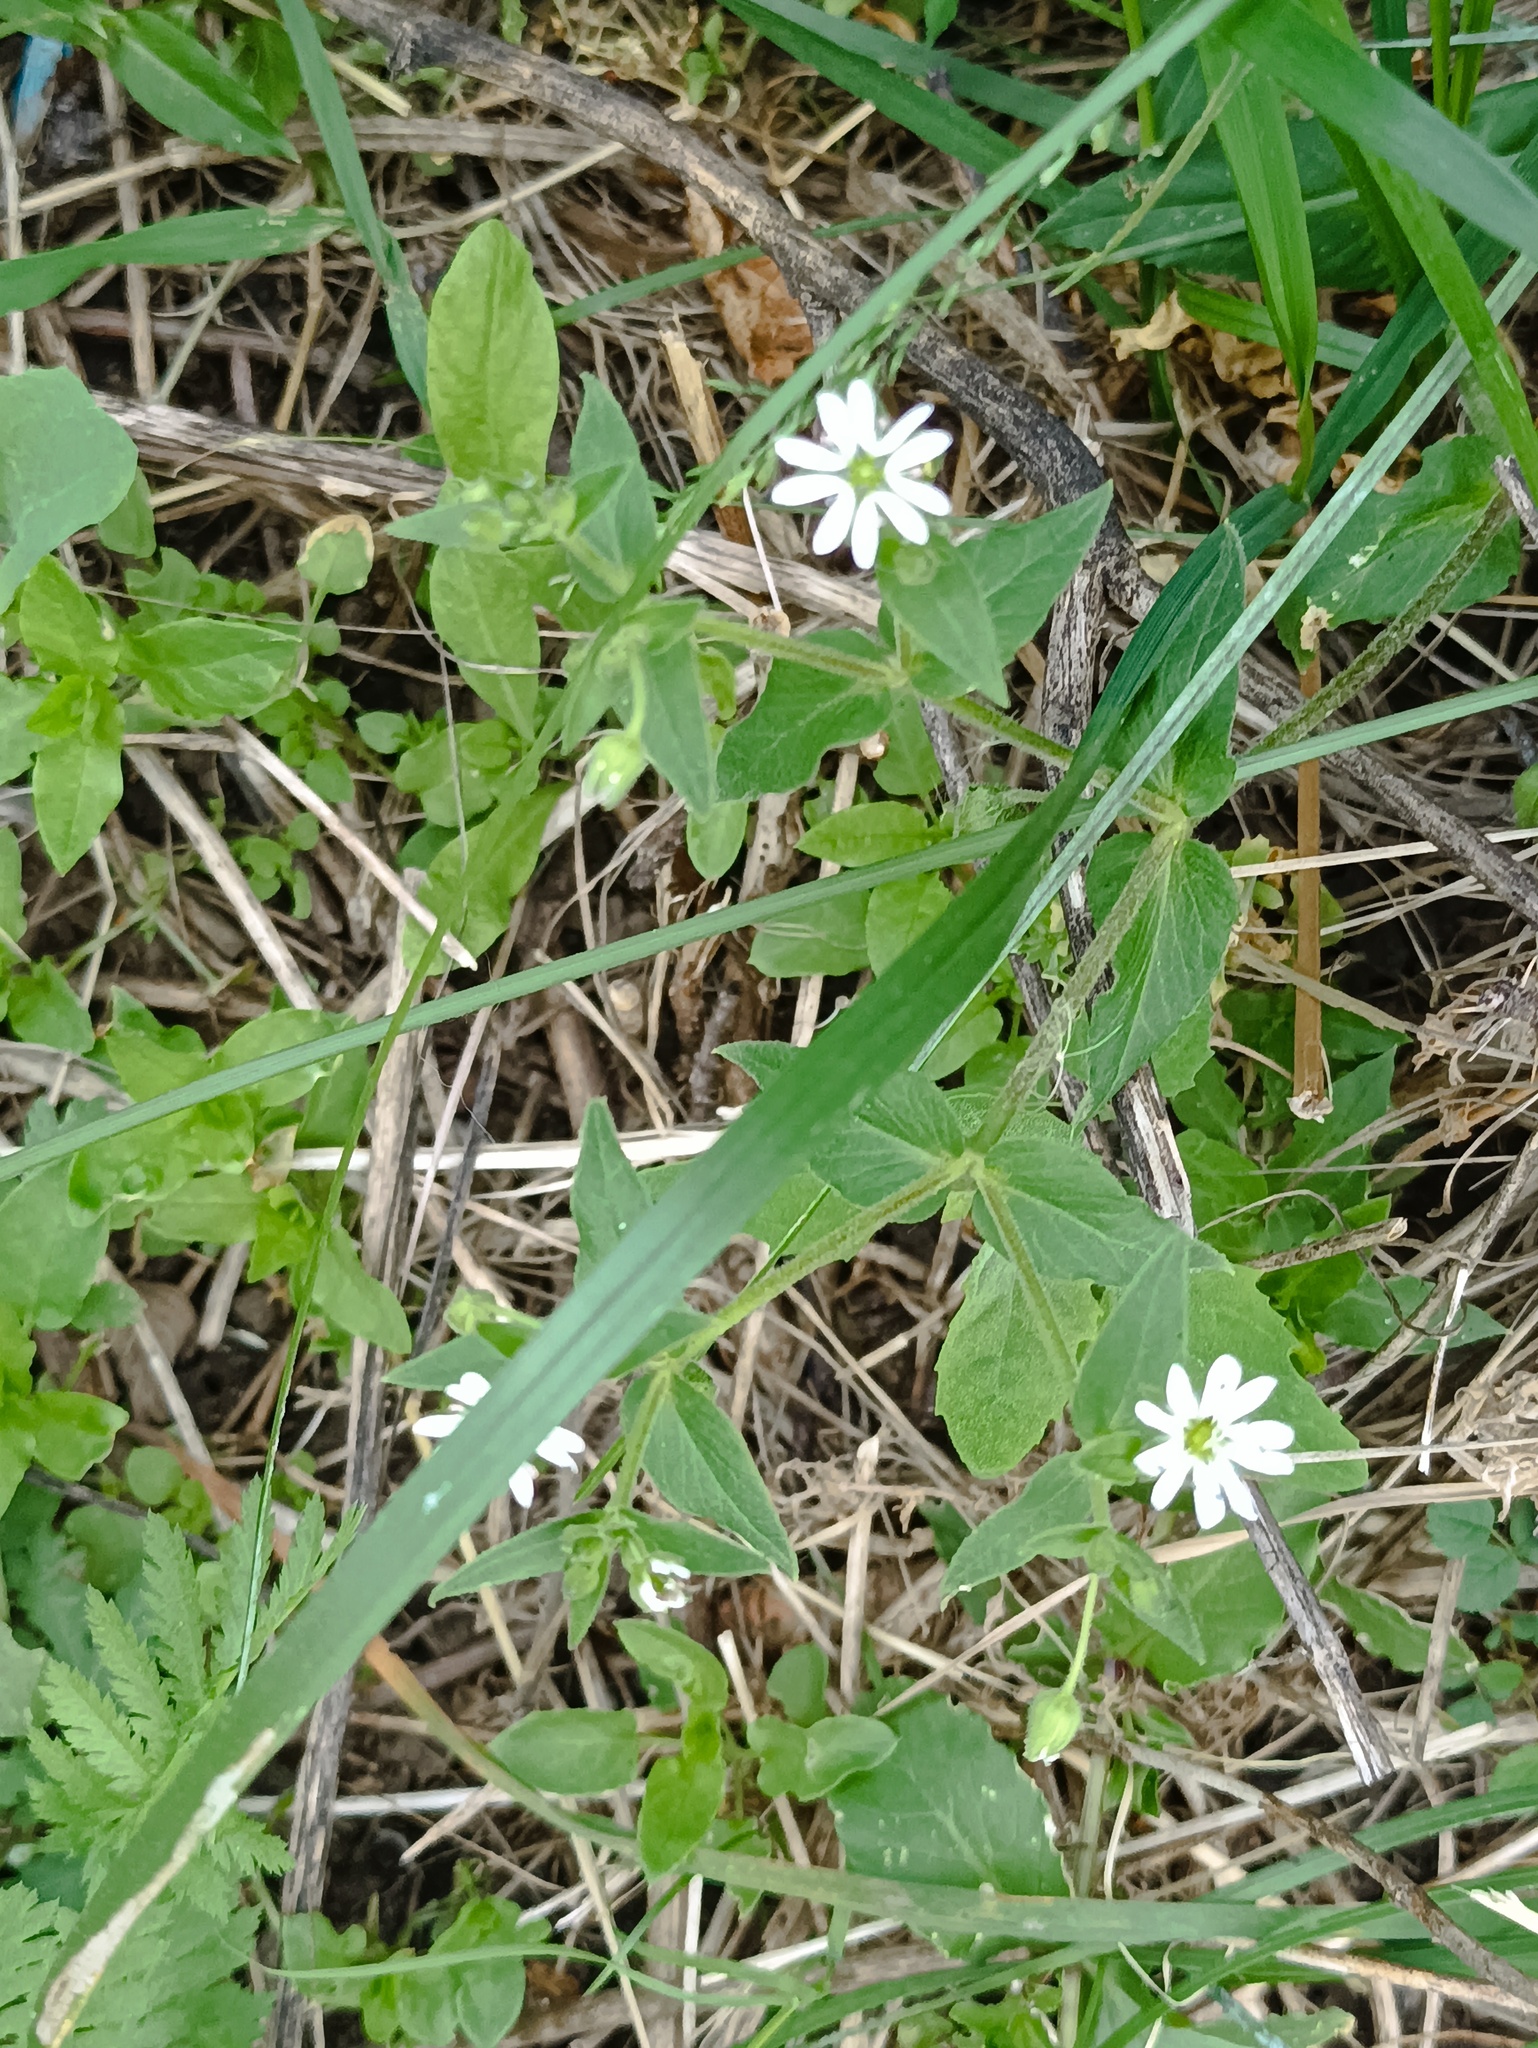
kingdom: Plantae
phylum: Tracheophyta
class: Magnoliopsida
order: Caryophyllales
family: Caryophyllaceae
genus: Stellaria
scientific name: Stellaria aquatica
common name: Water chickweed
